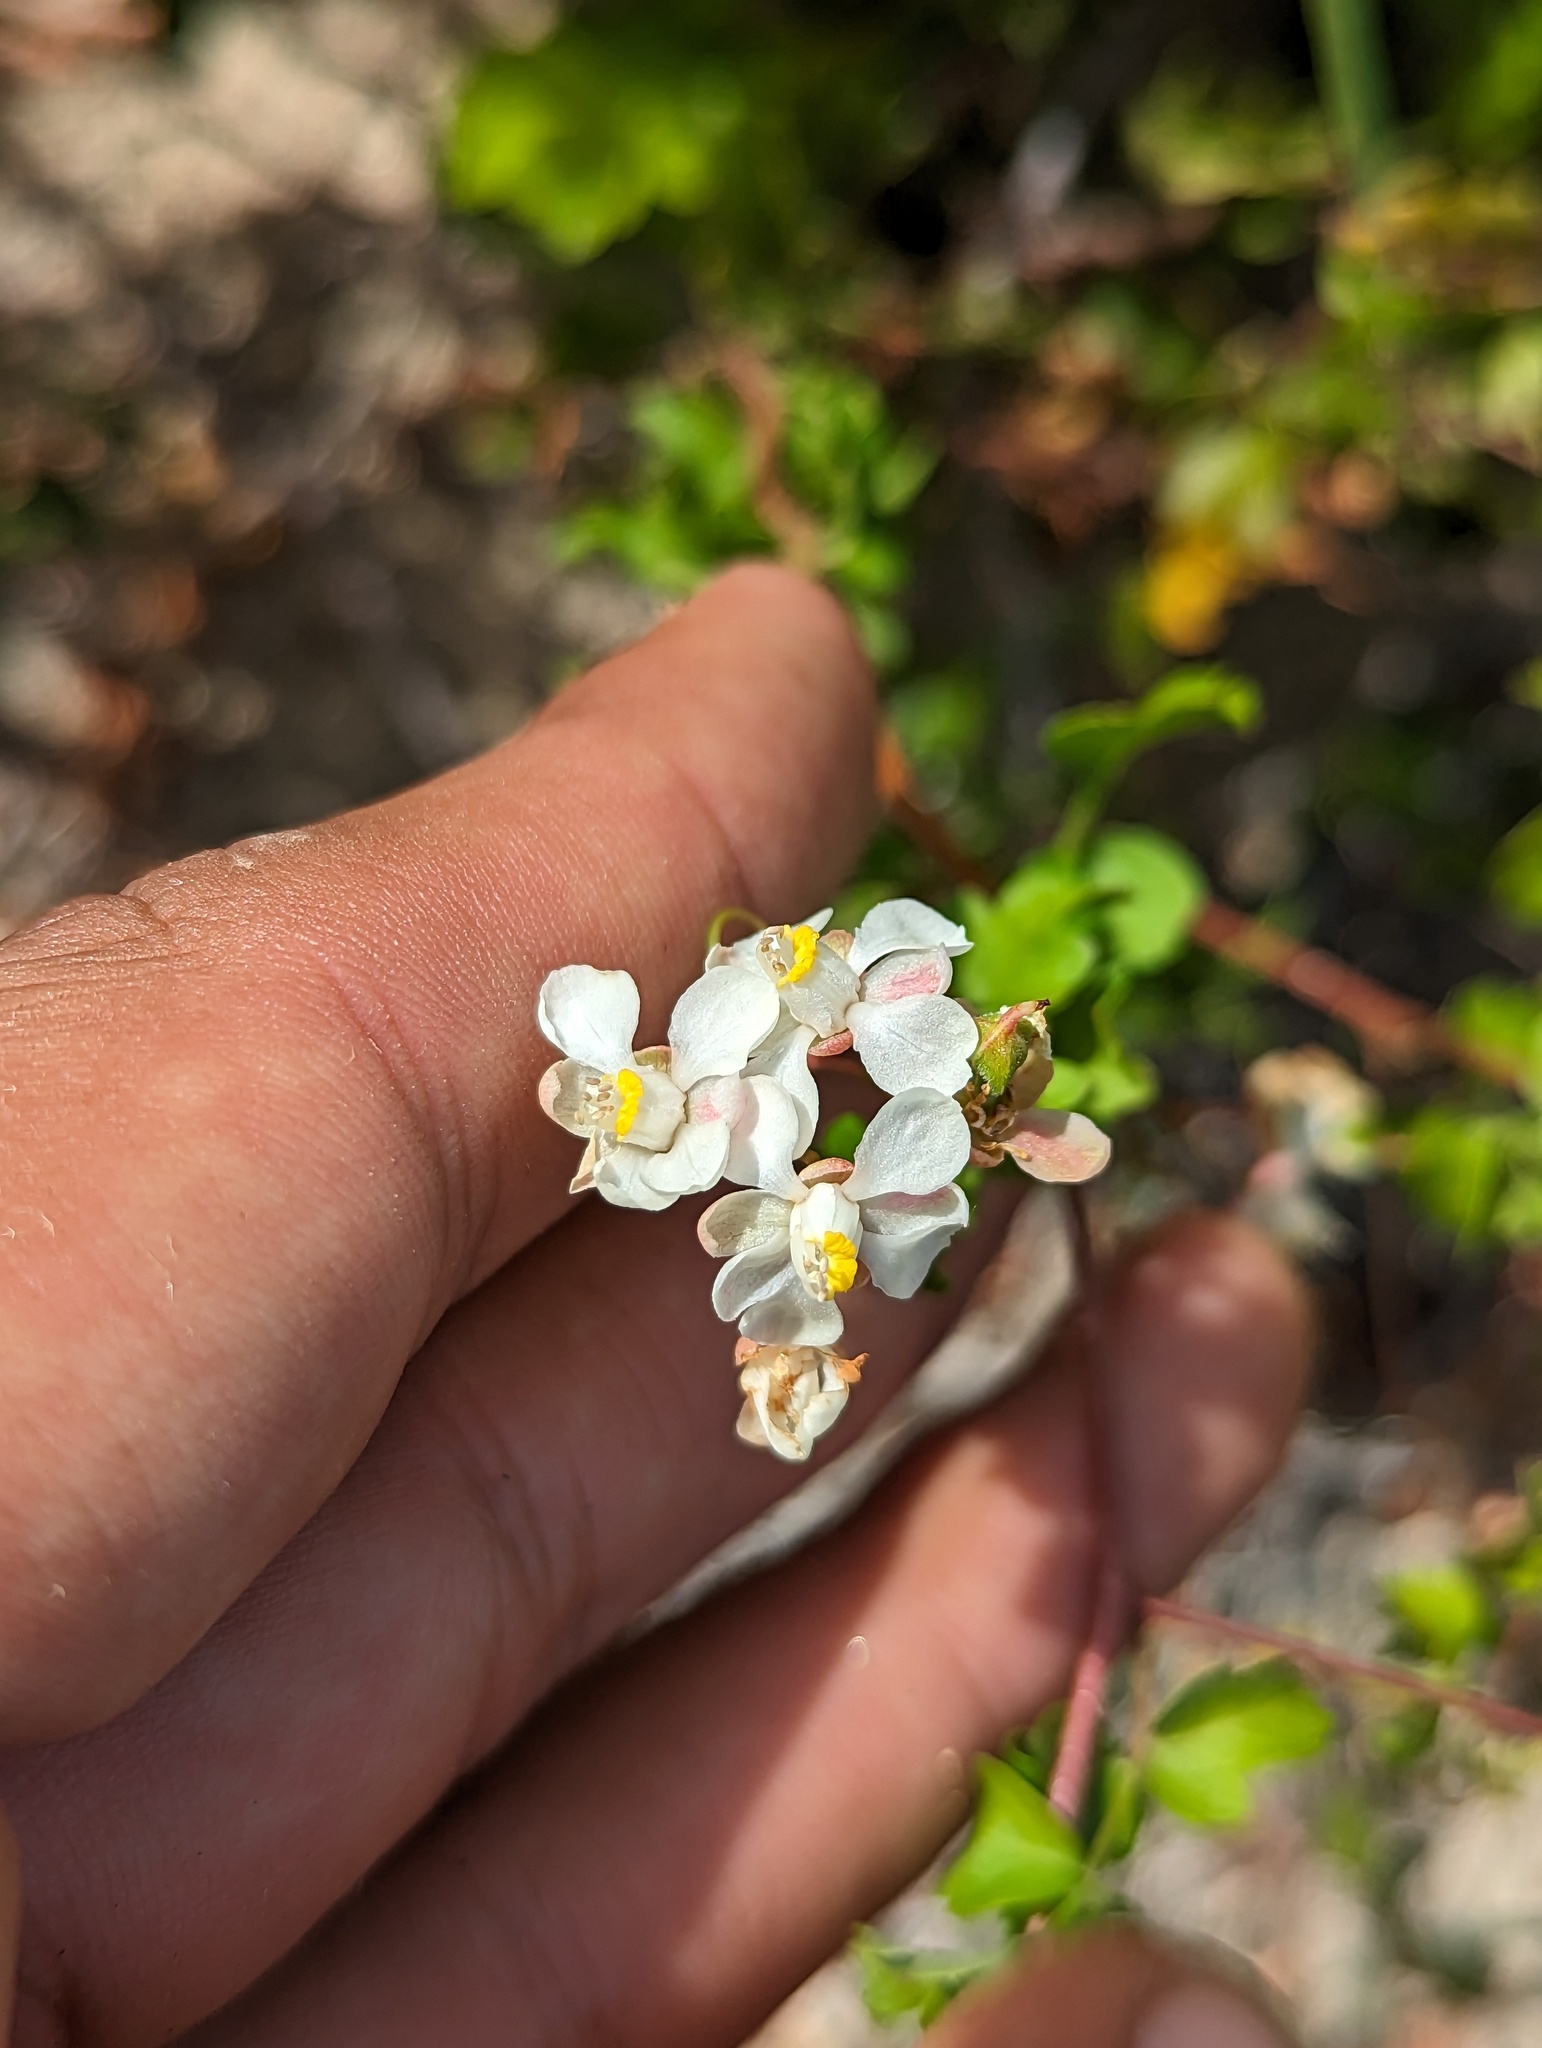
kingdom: Plantae
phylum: Tracheophyta
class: Magnoliopsida
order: Sapindales
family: Sapindaceae
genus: Cardiospermum
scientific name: Cardiospermum corindum
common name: Faux persil
